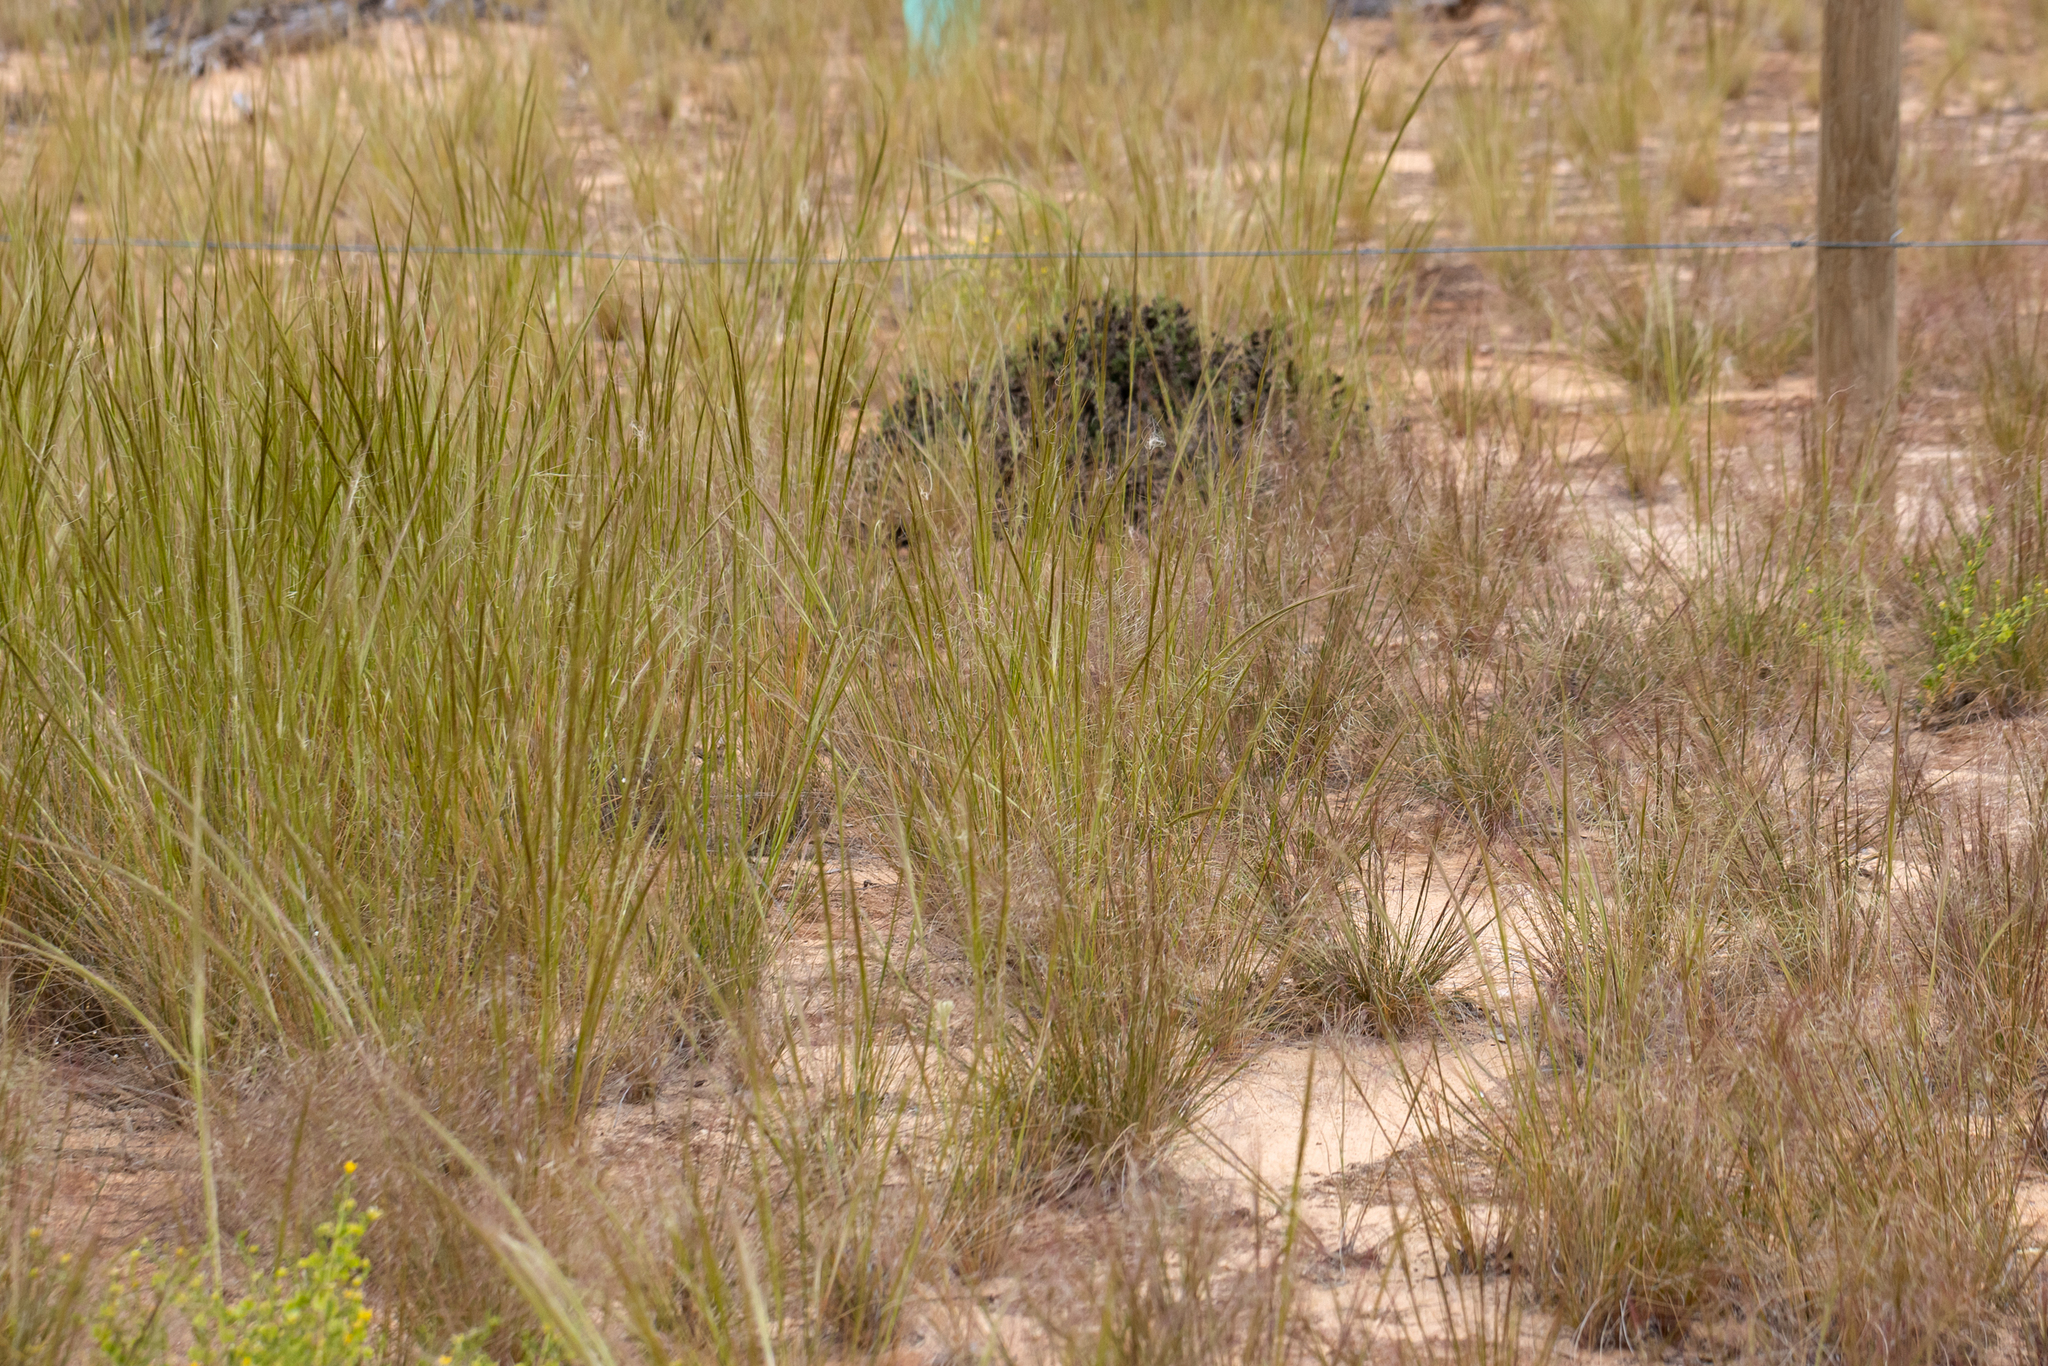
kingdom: Plantae
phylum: Tracheophyta
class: Liliopsida
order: Poales
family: Poaceae
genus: Austrostipa
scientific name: Austrostipa nitida
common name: Balcarra grass
